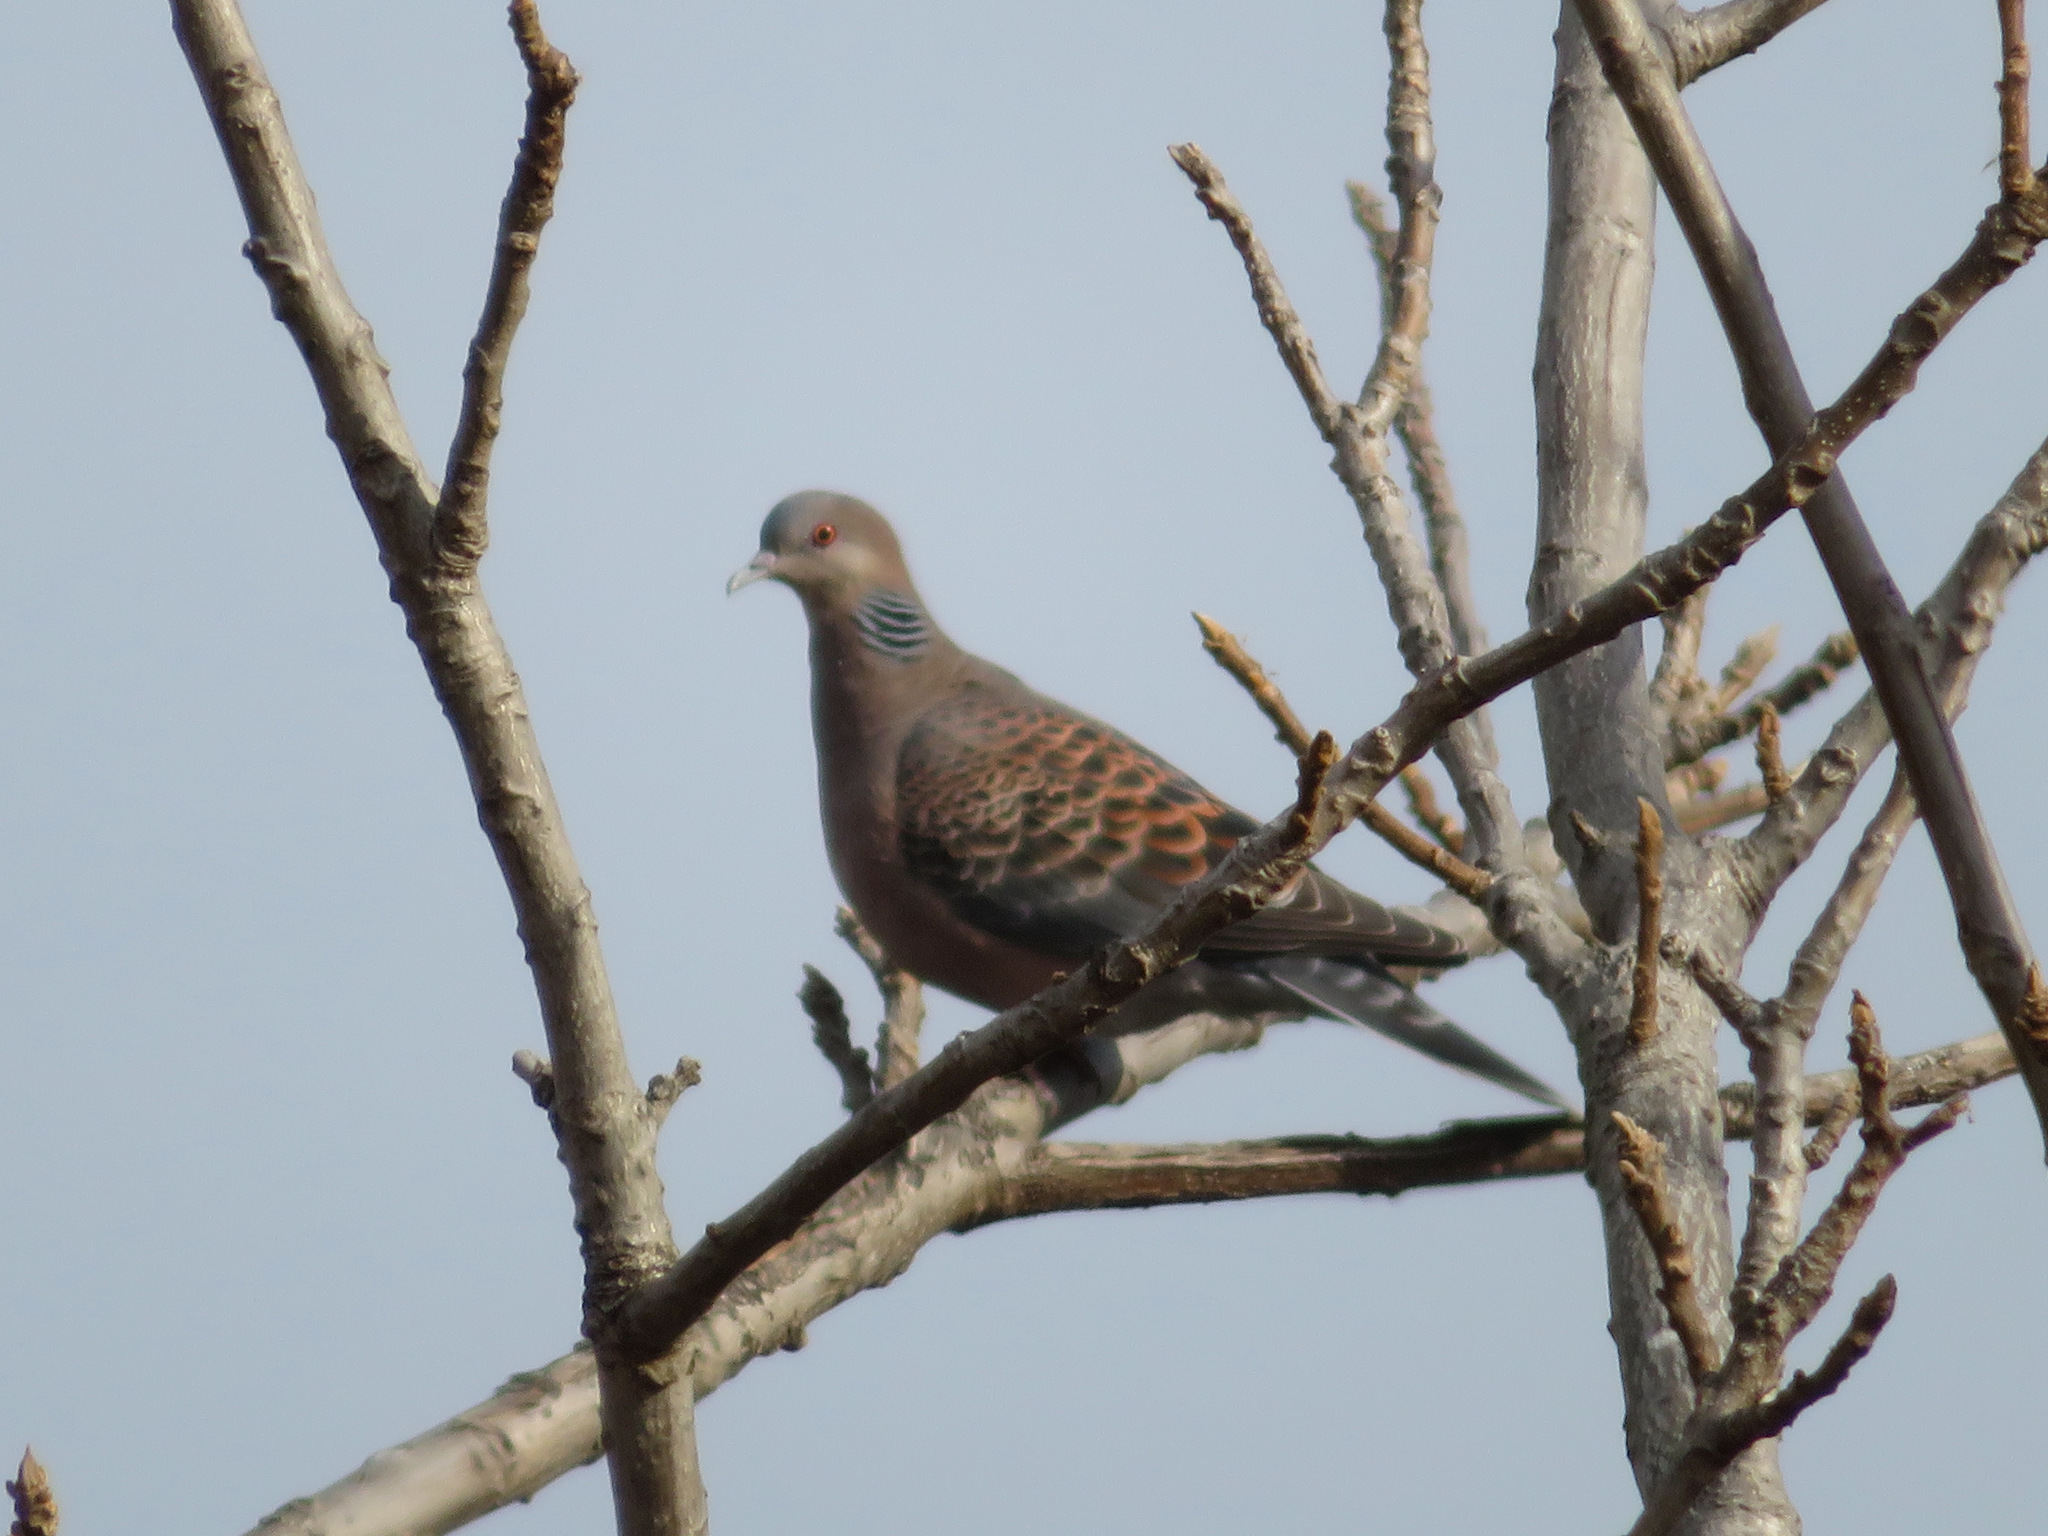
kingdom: Animalia
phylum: Chordata
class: Aves
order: Columbiformes
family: Columbidae
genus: Streptopelia
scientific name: Streptopelia orientalis
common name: Oriental turtle dove
